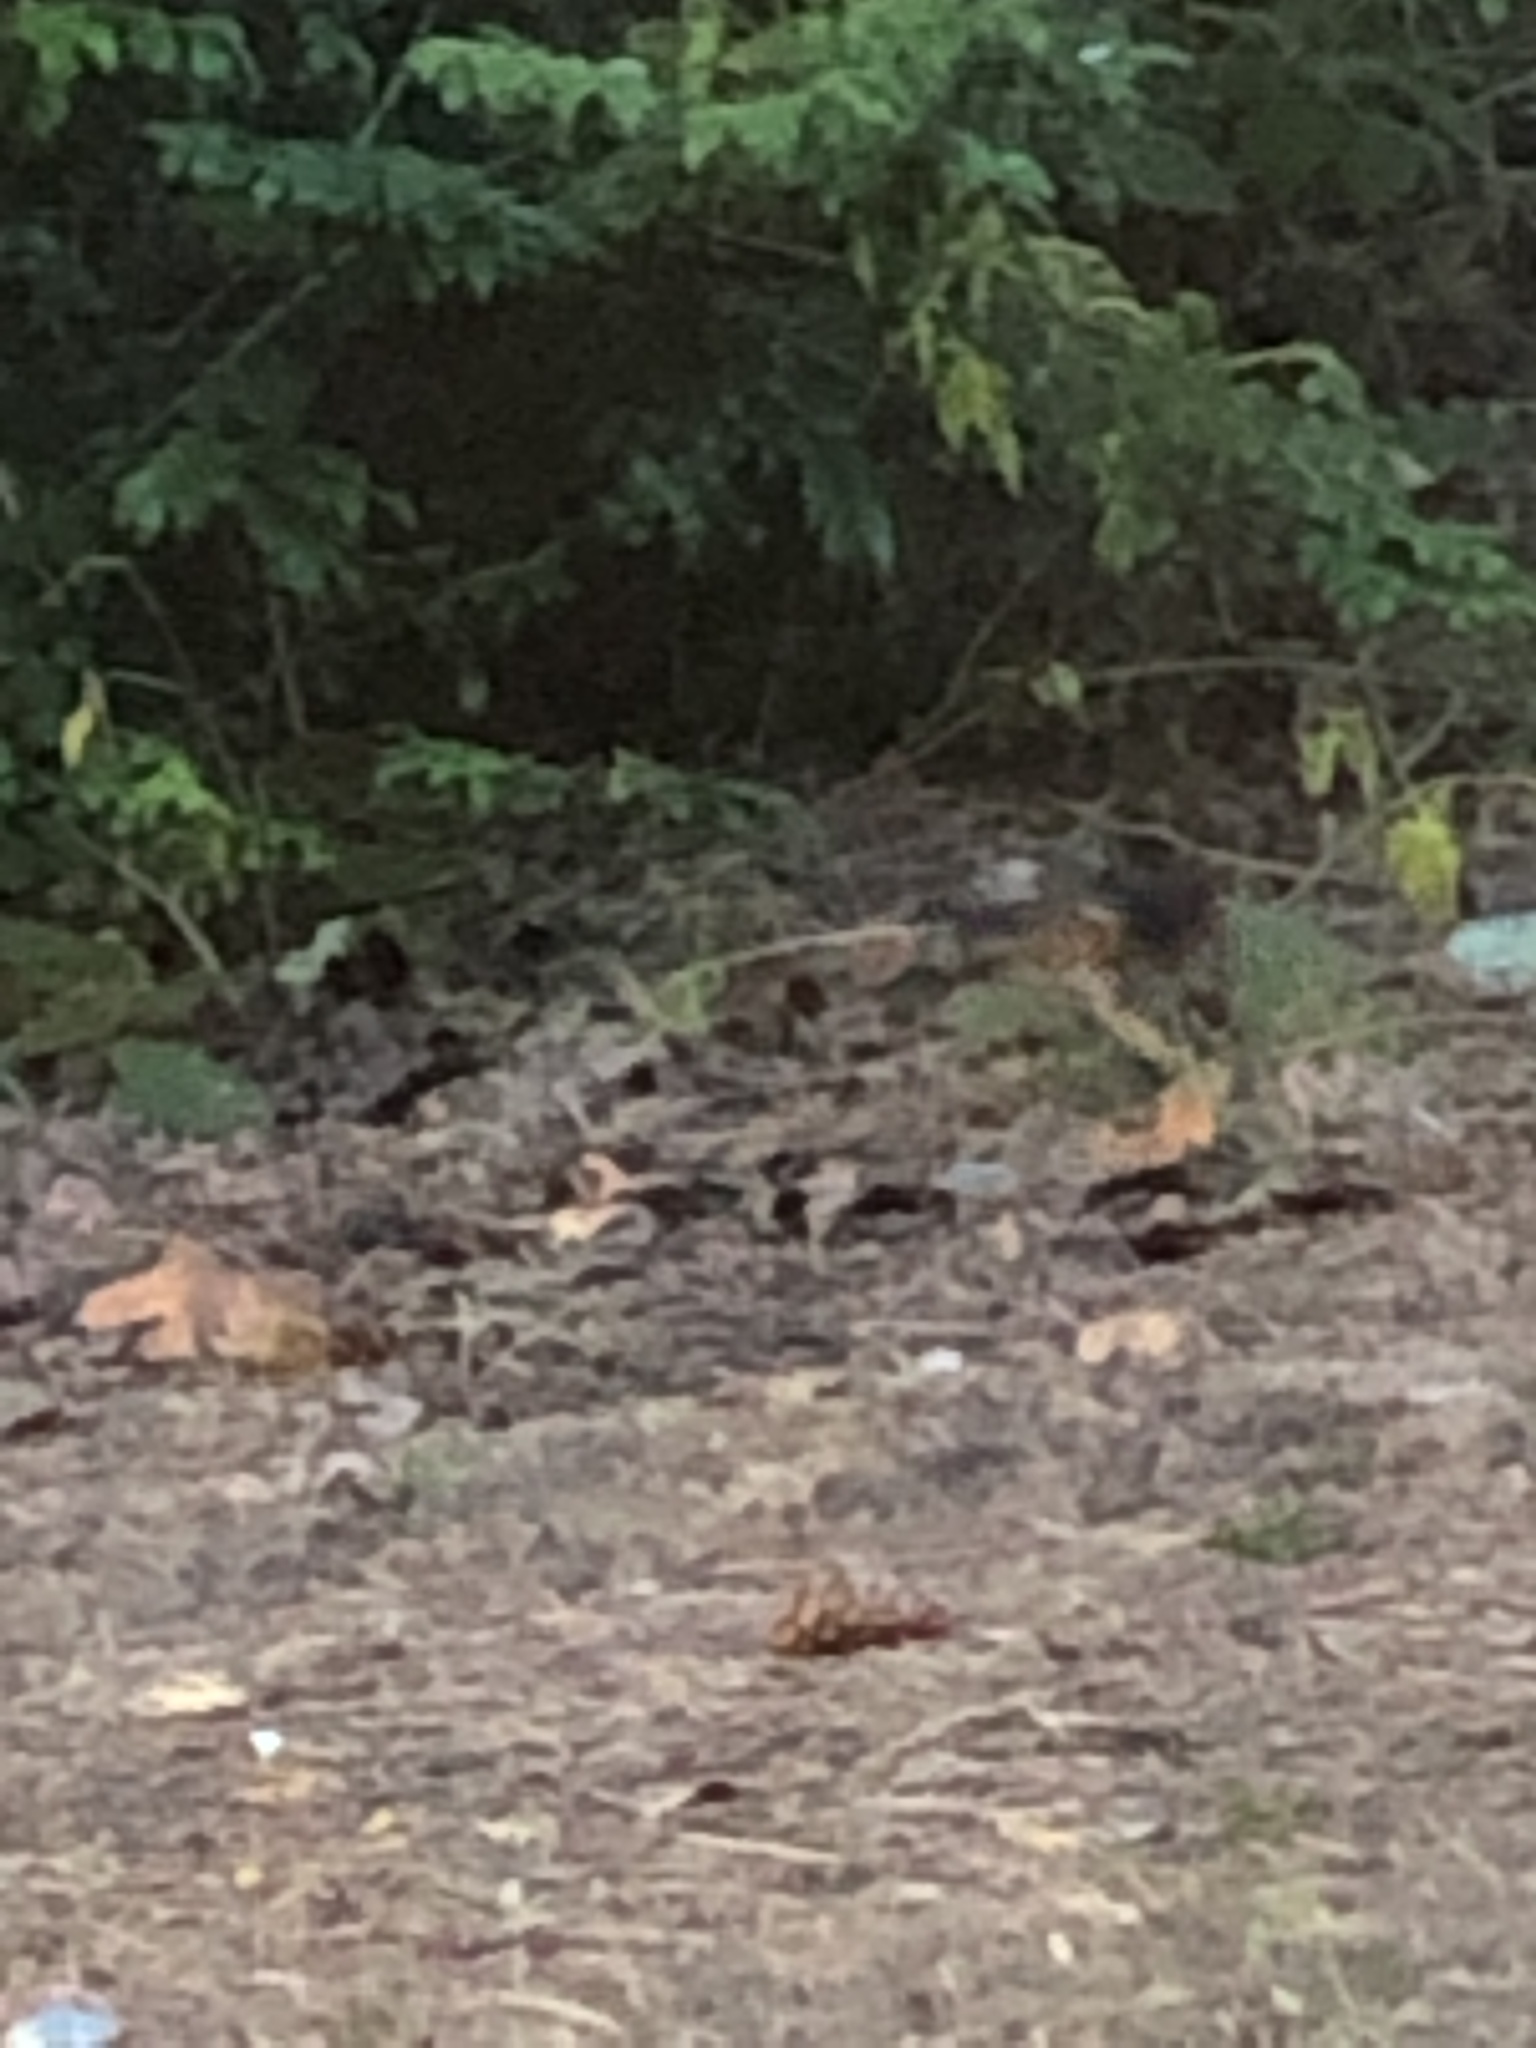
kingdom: Animalia
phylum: Chordata
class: Aves
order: Passeriformes
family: Passerellidae
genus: Pipilo
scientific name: Pipilo maculatus
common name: Spotted towhee
